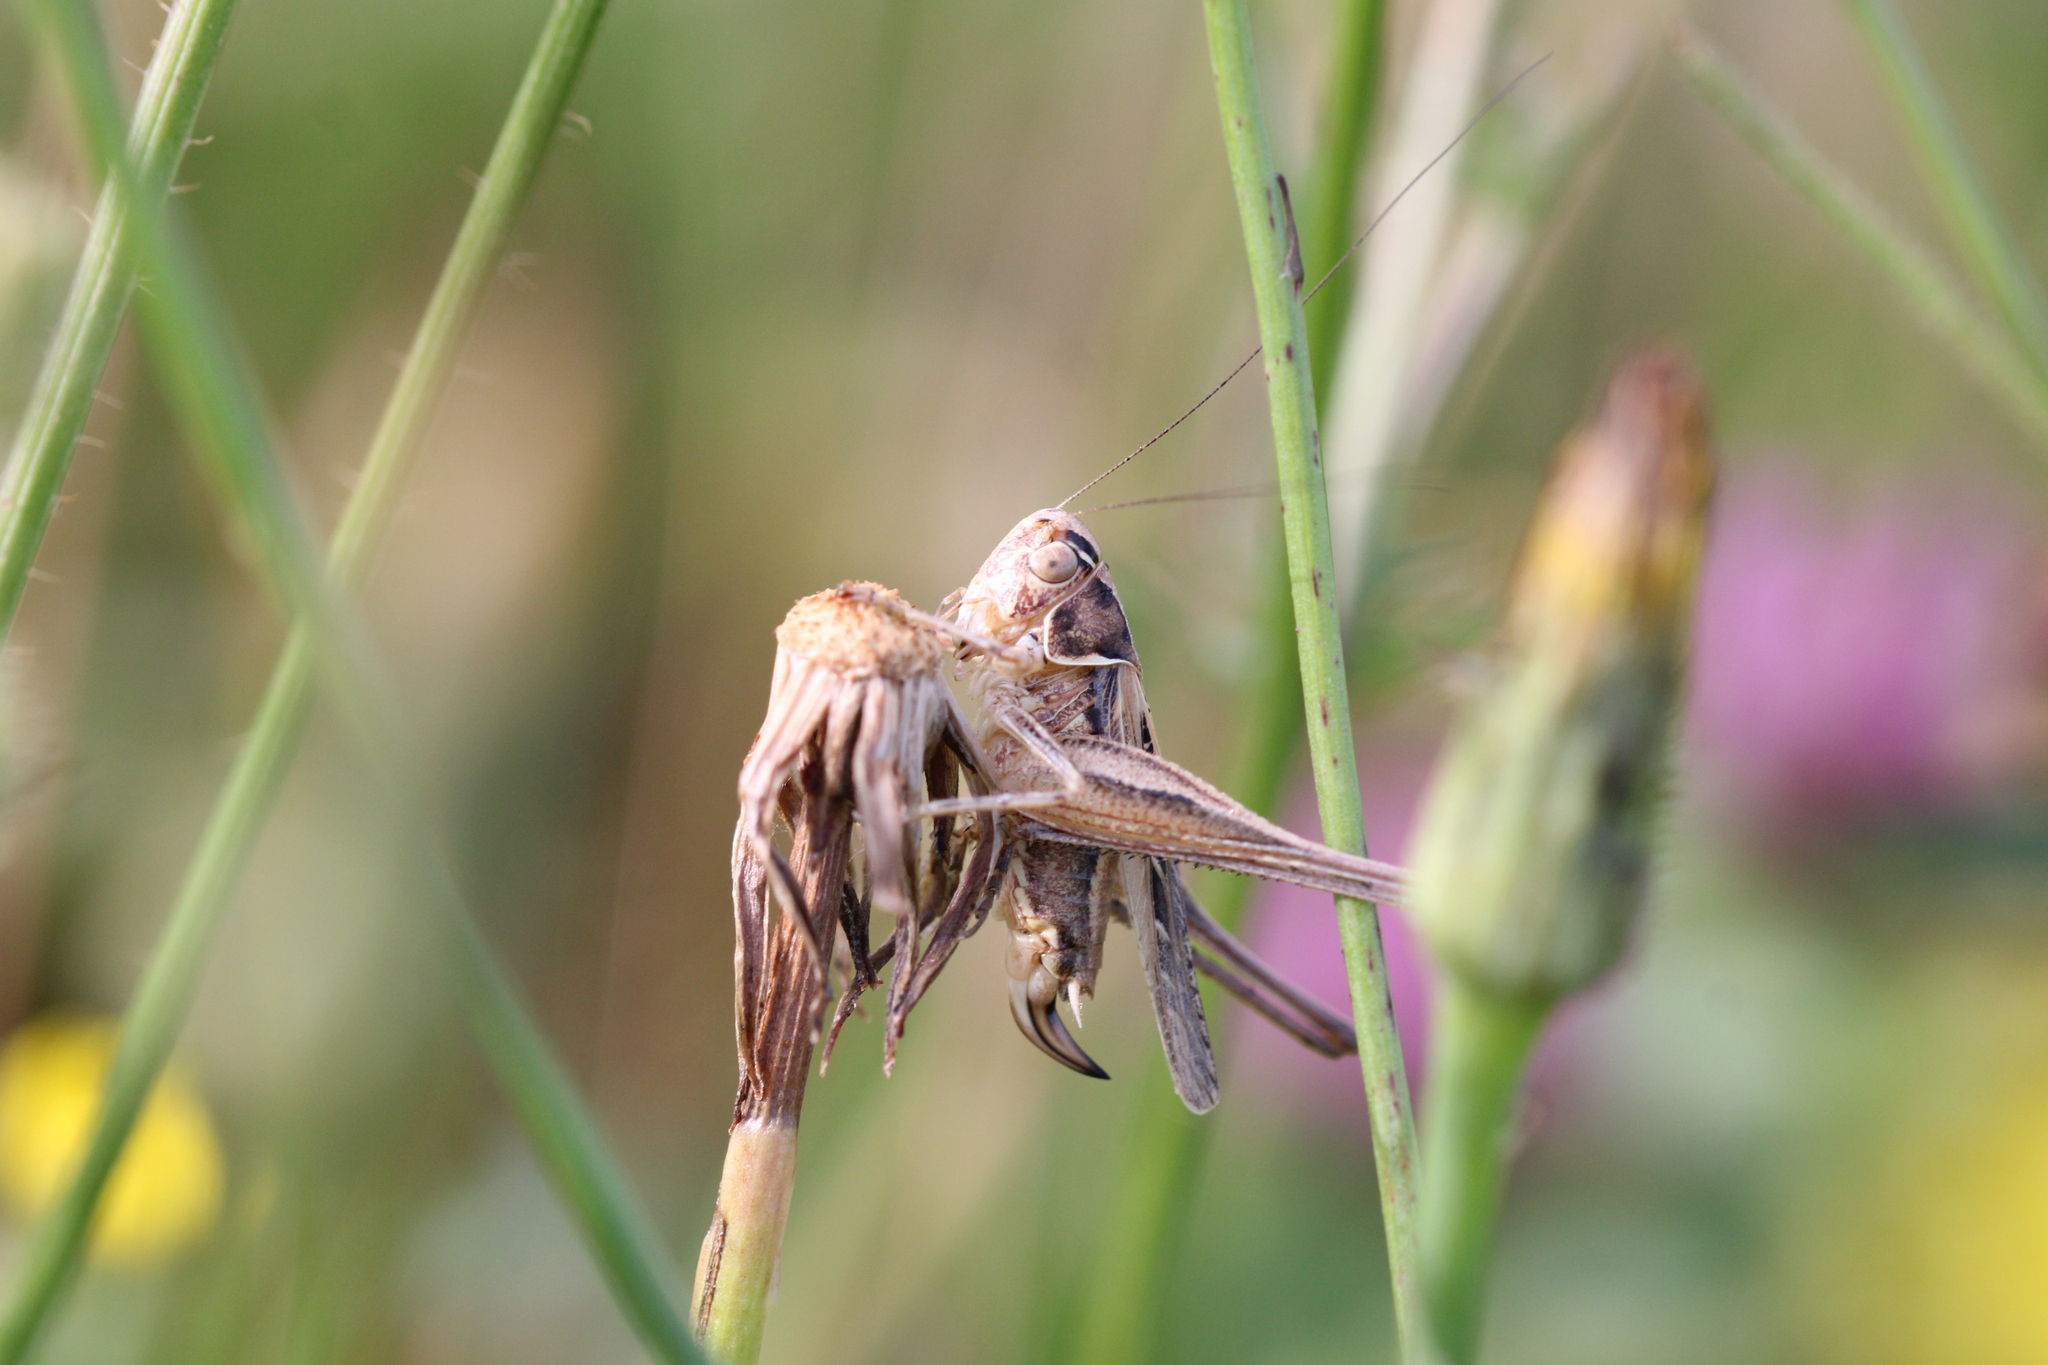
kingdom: Animalia
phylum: Arthropoda
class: Insecta
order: Orthoptera
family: Tettigoniidae
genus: Tessellana
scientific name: Tessellana tessellata
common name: Grasshopper
